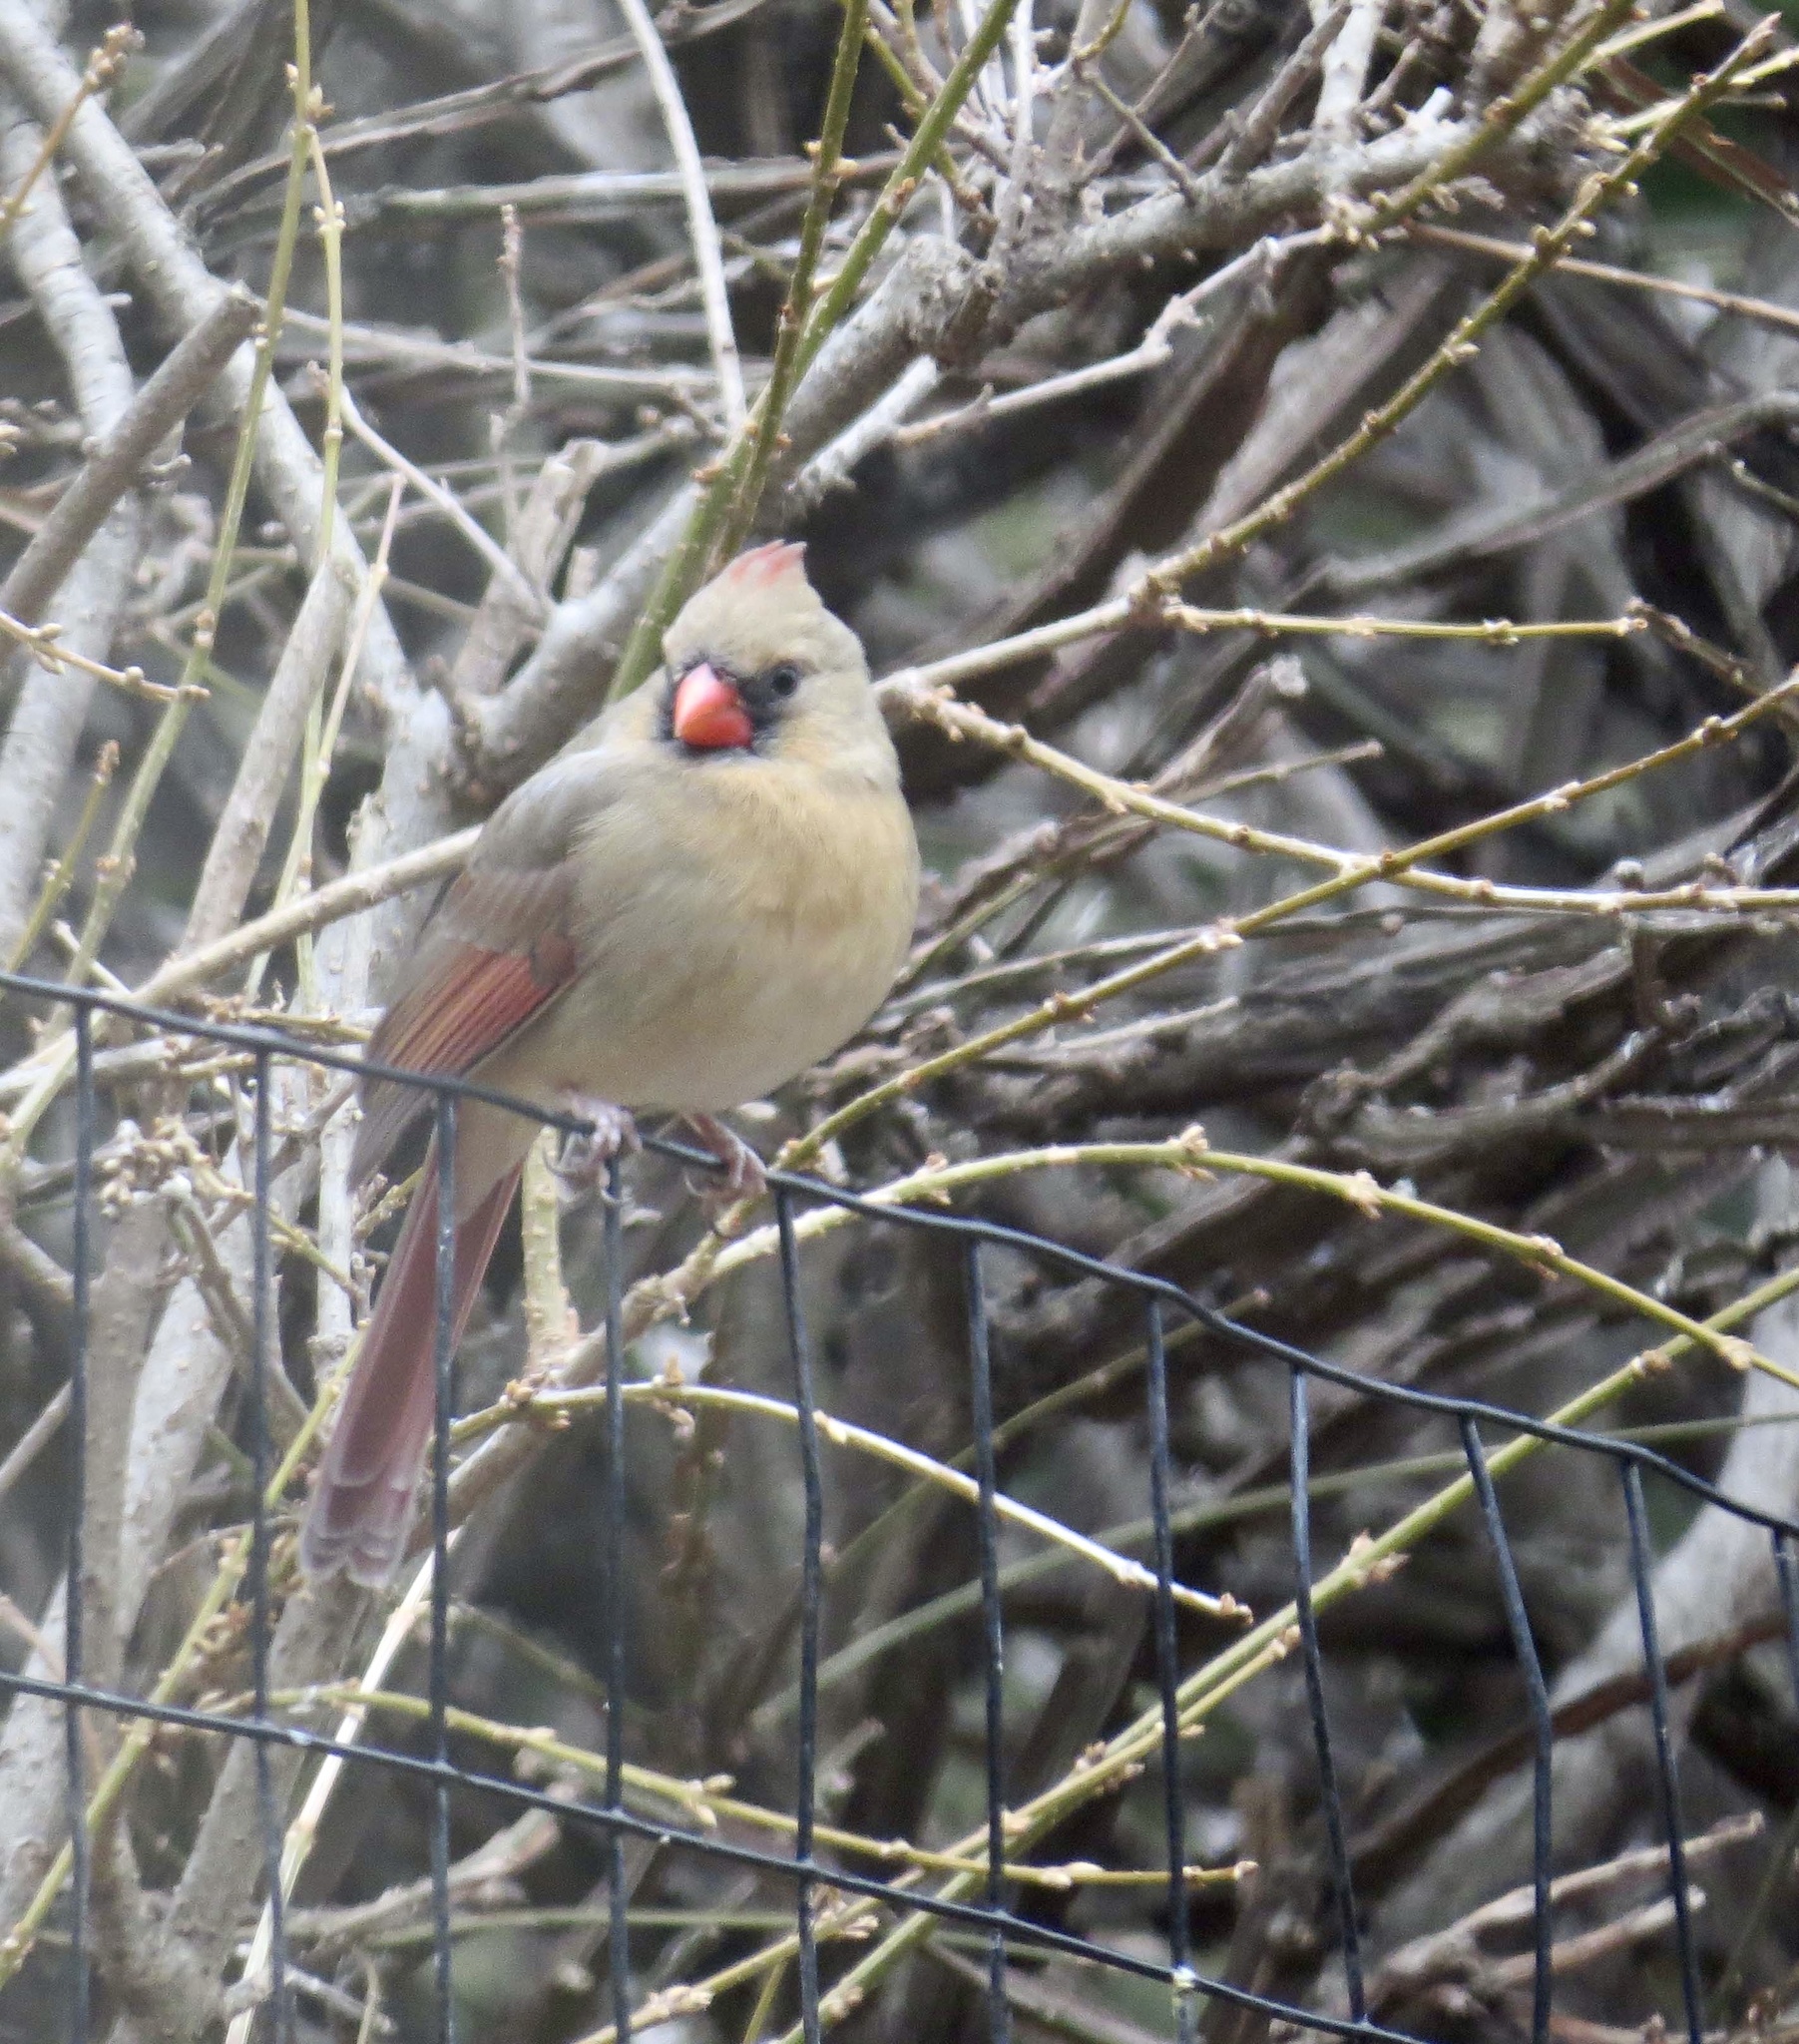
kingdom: Animalia
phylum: Chordata
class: Aves
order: Passeriformes
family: Cardinalidae
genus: Cardinalis
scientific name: Cardinalis cardinalis
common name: Northern cardinal
